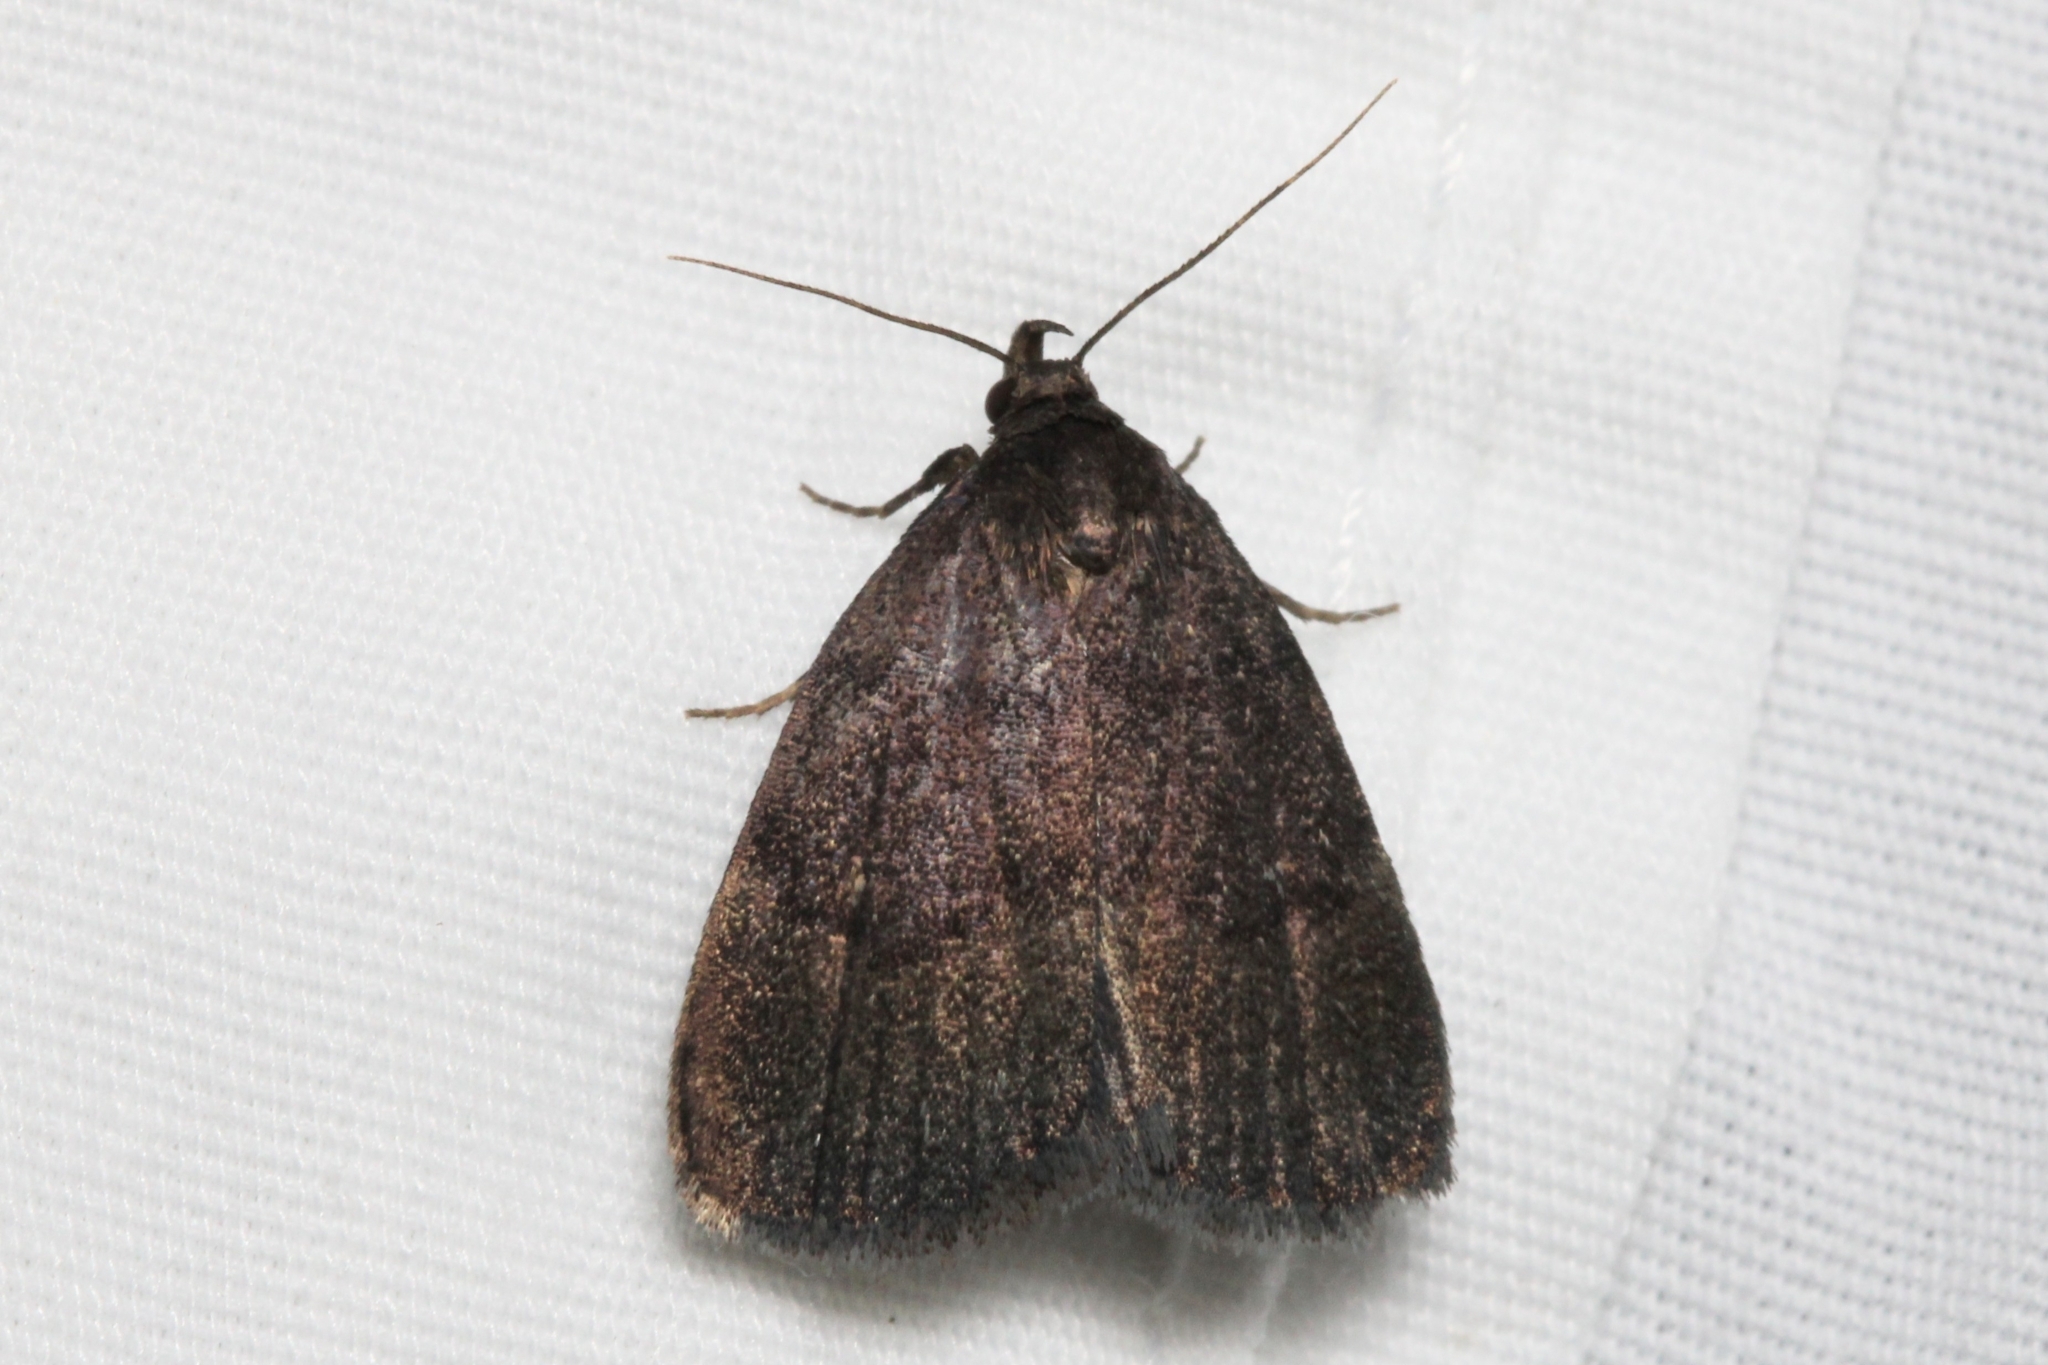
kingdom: Animalia
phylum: Arthropoda
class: Insecta
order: Lepidoptera
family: Erebidae
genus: Idia
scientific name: Idia rotundalis
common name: Rotund idia moth
